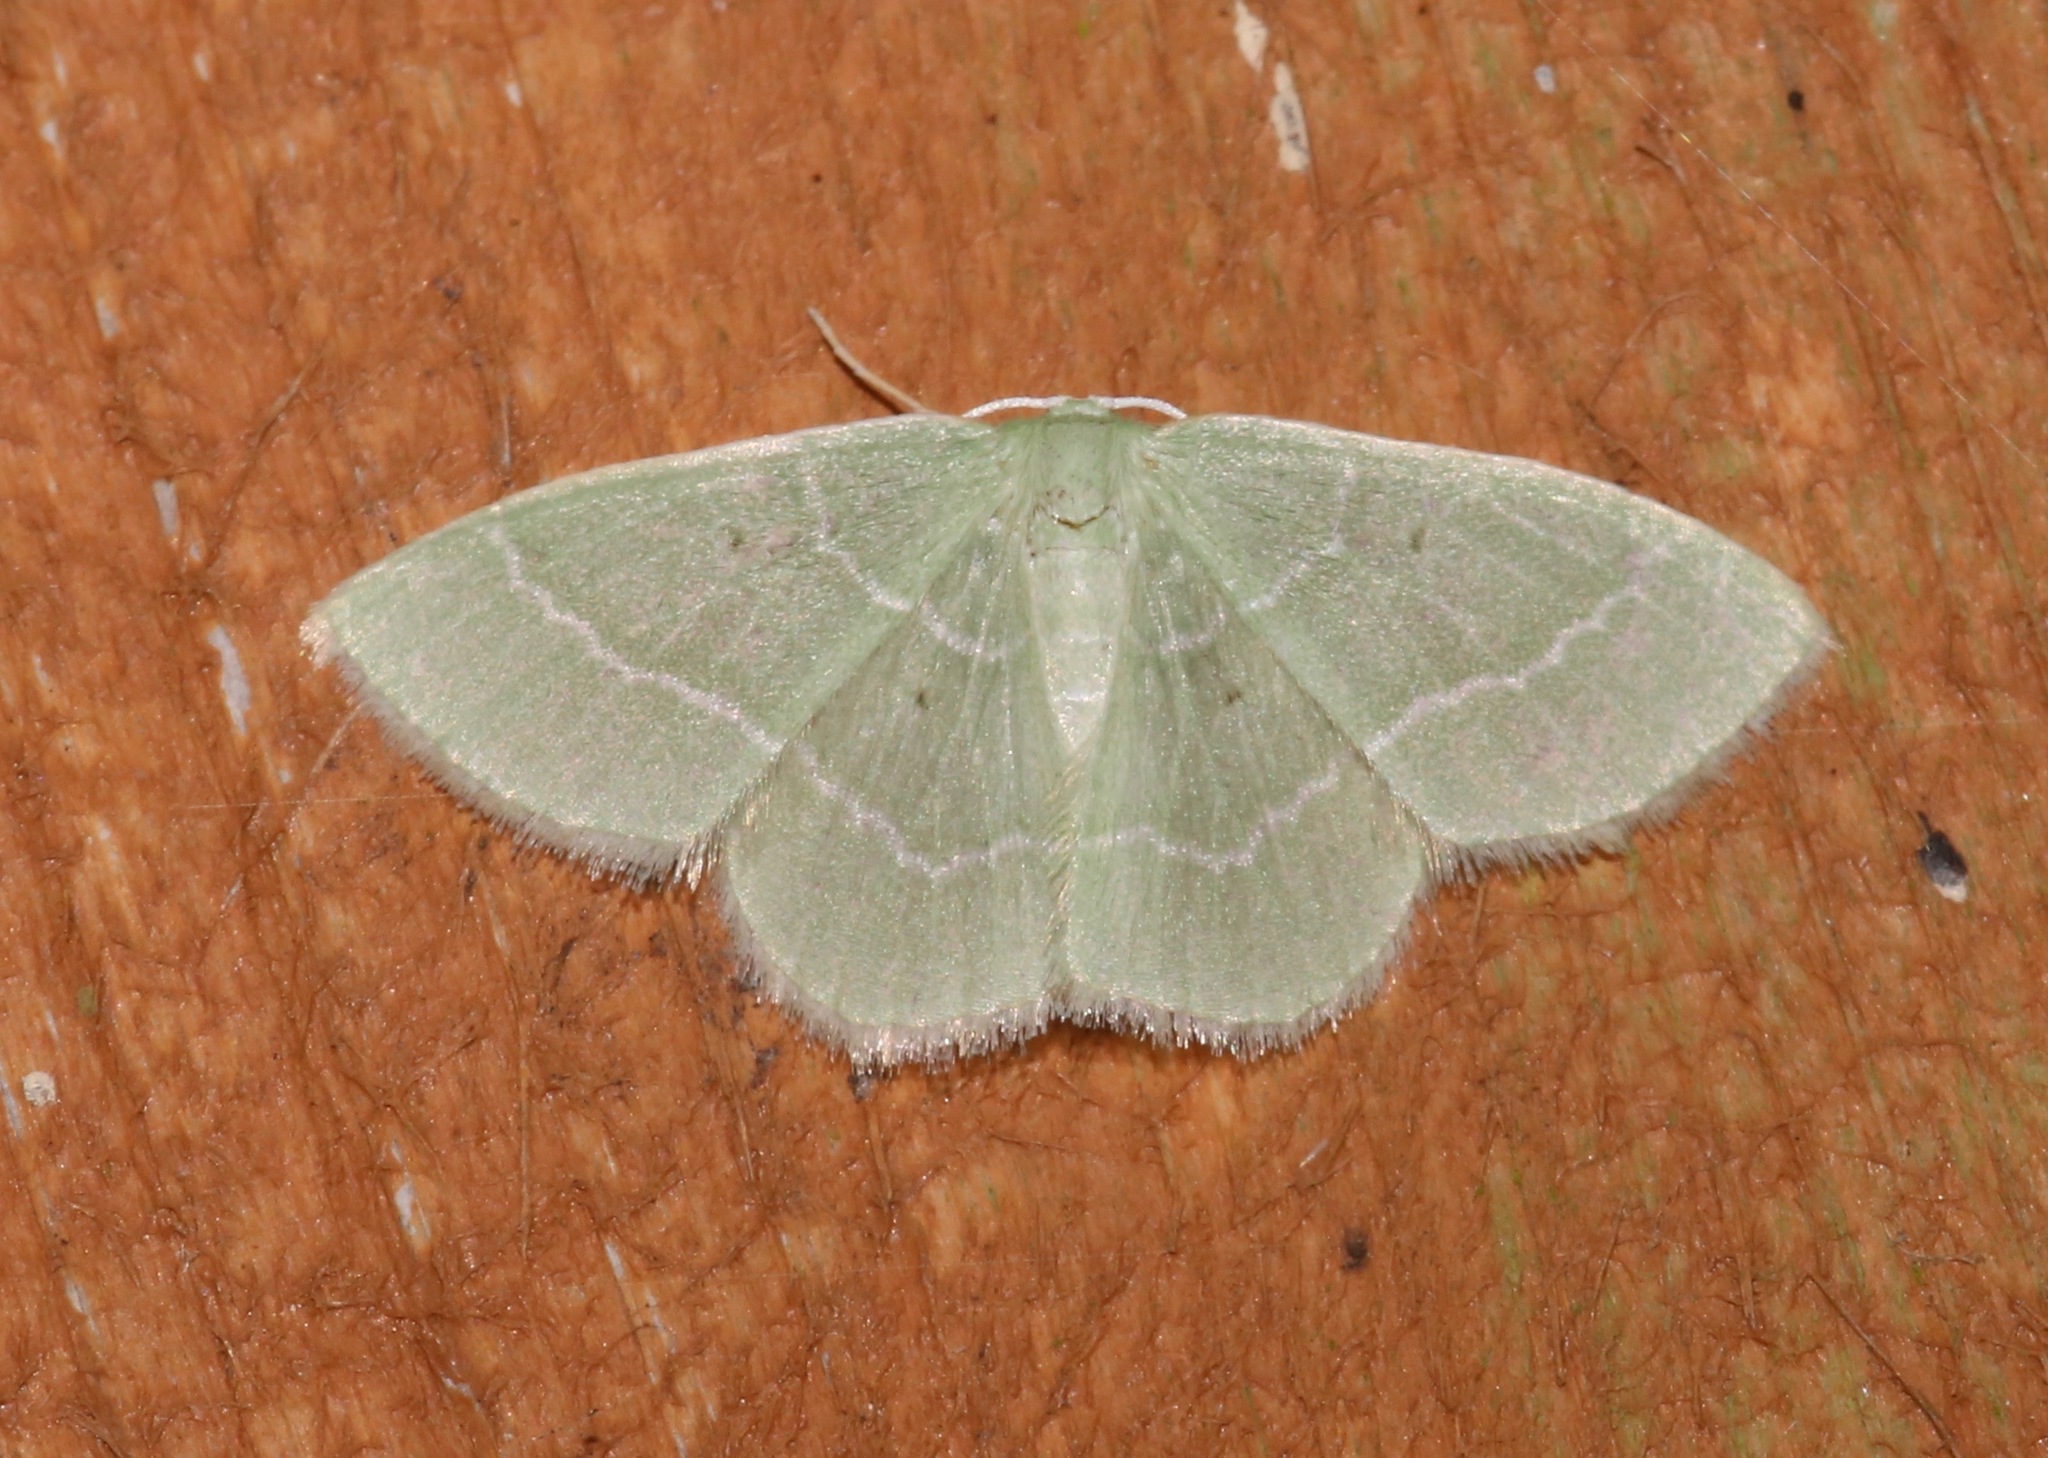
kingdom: Animalia
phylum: Arthropoda
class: Insecta
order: Lepidoptera
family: Geometridae
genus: Nemoria
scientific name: Nemoria elfa
